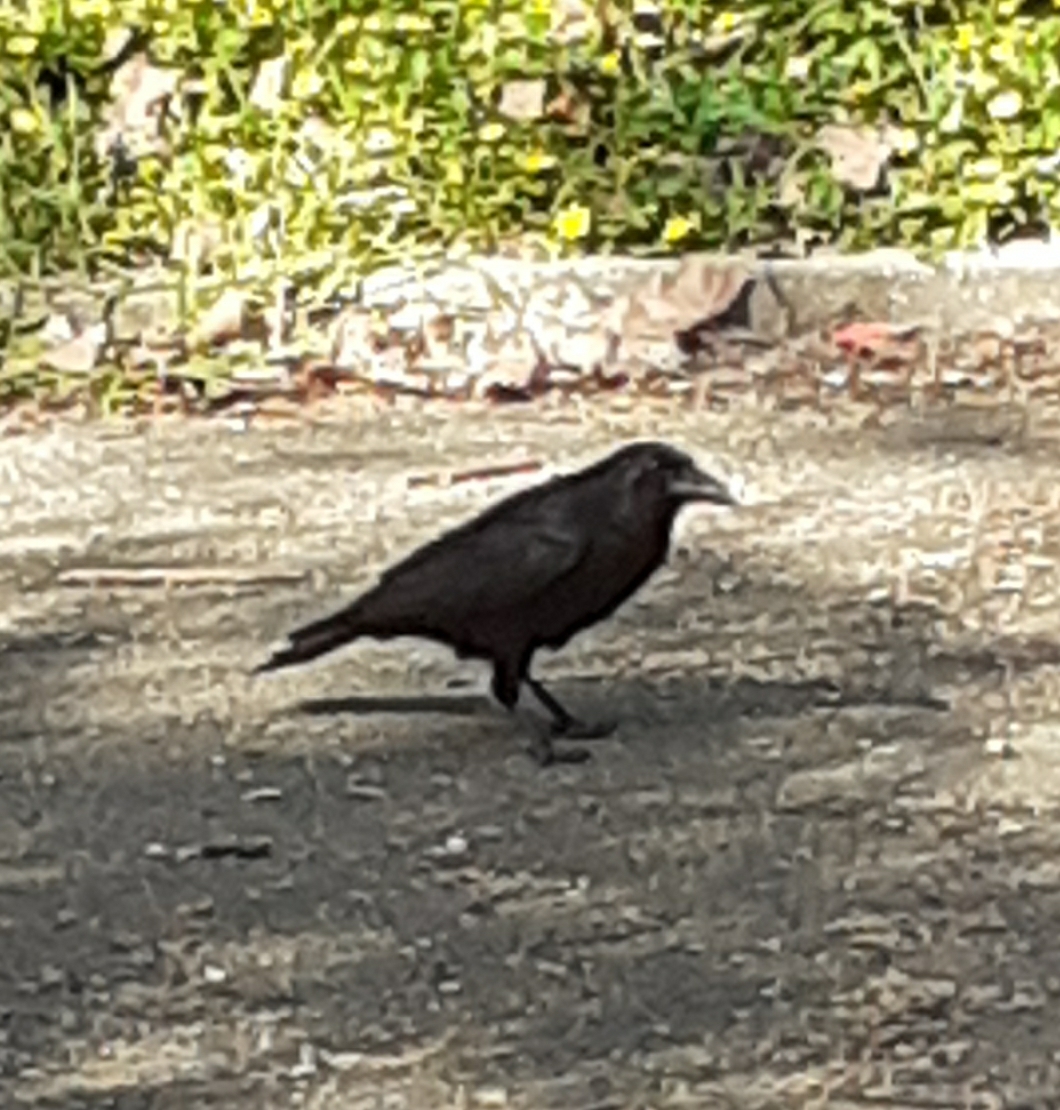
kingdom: Animalia
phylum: Chordata
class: Aves
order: Passeriformes
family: Corvidae
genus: Corvus
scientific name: Corvus corone
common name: Carrion crow
